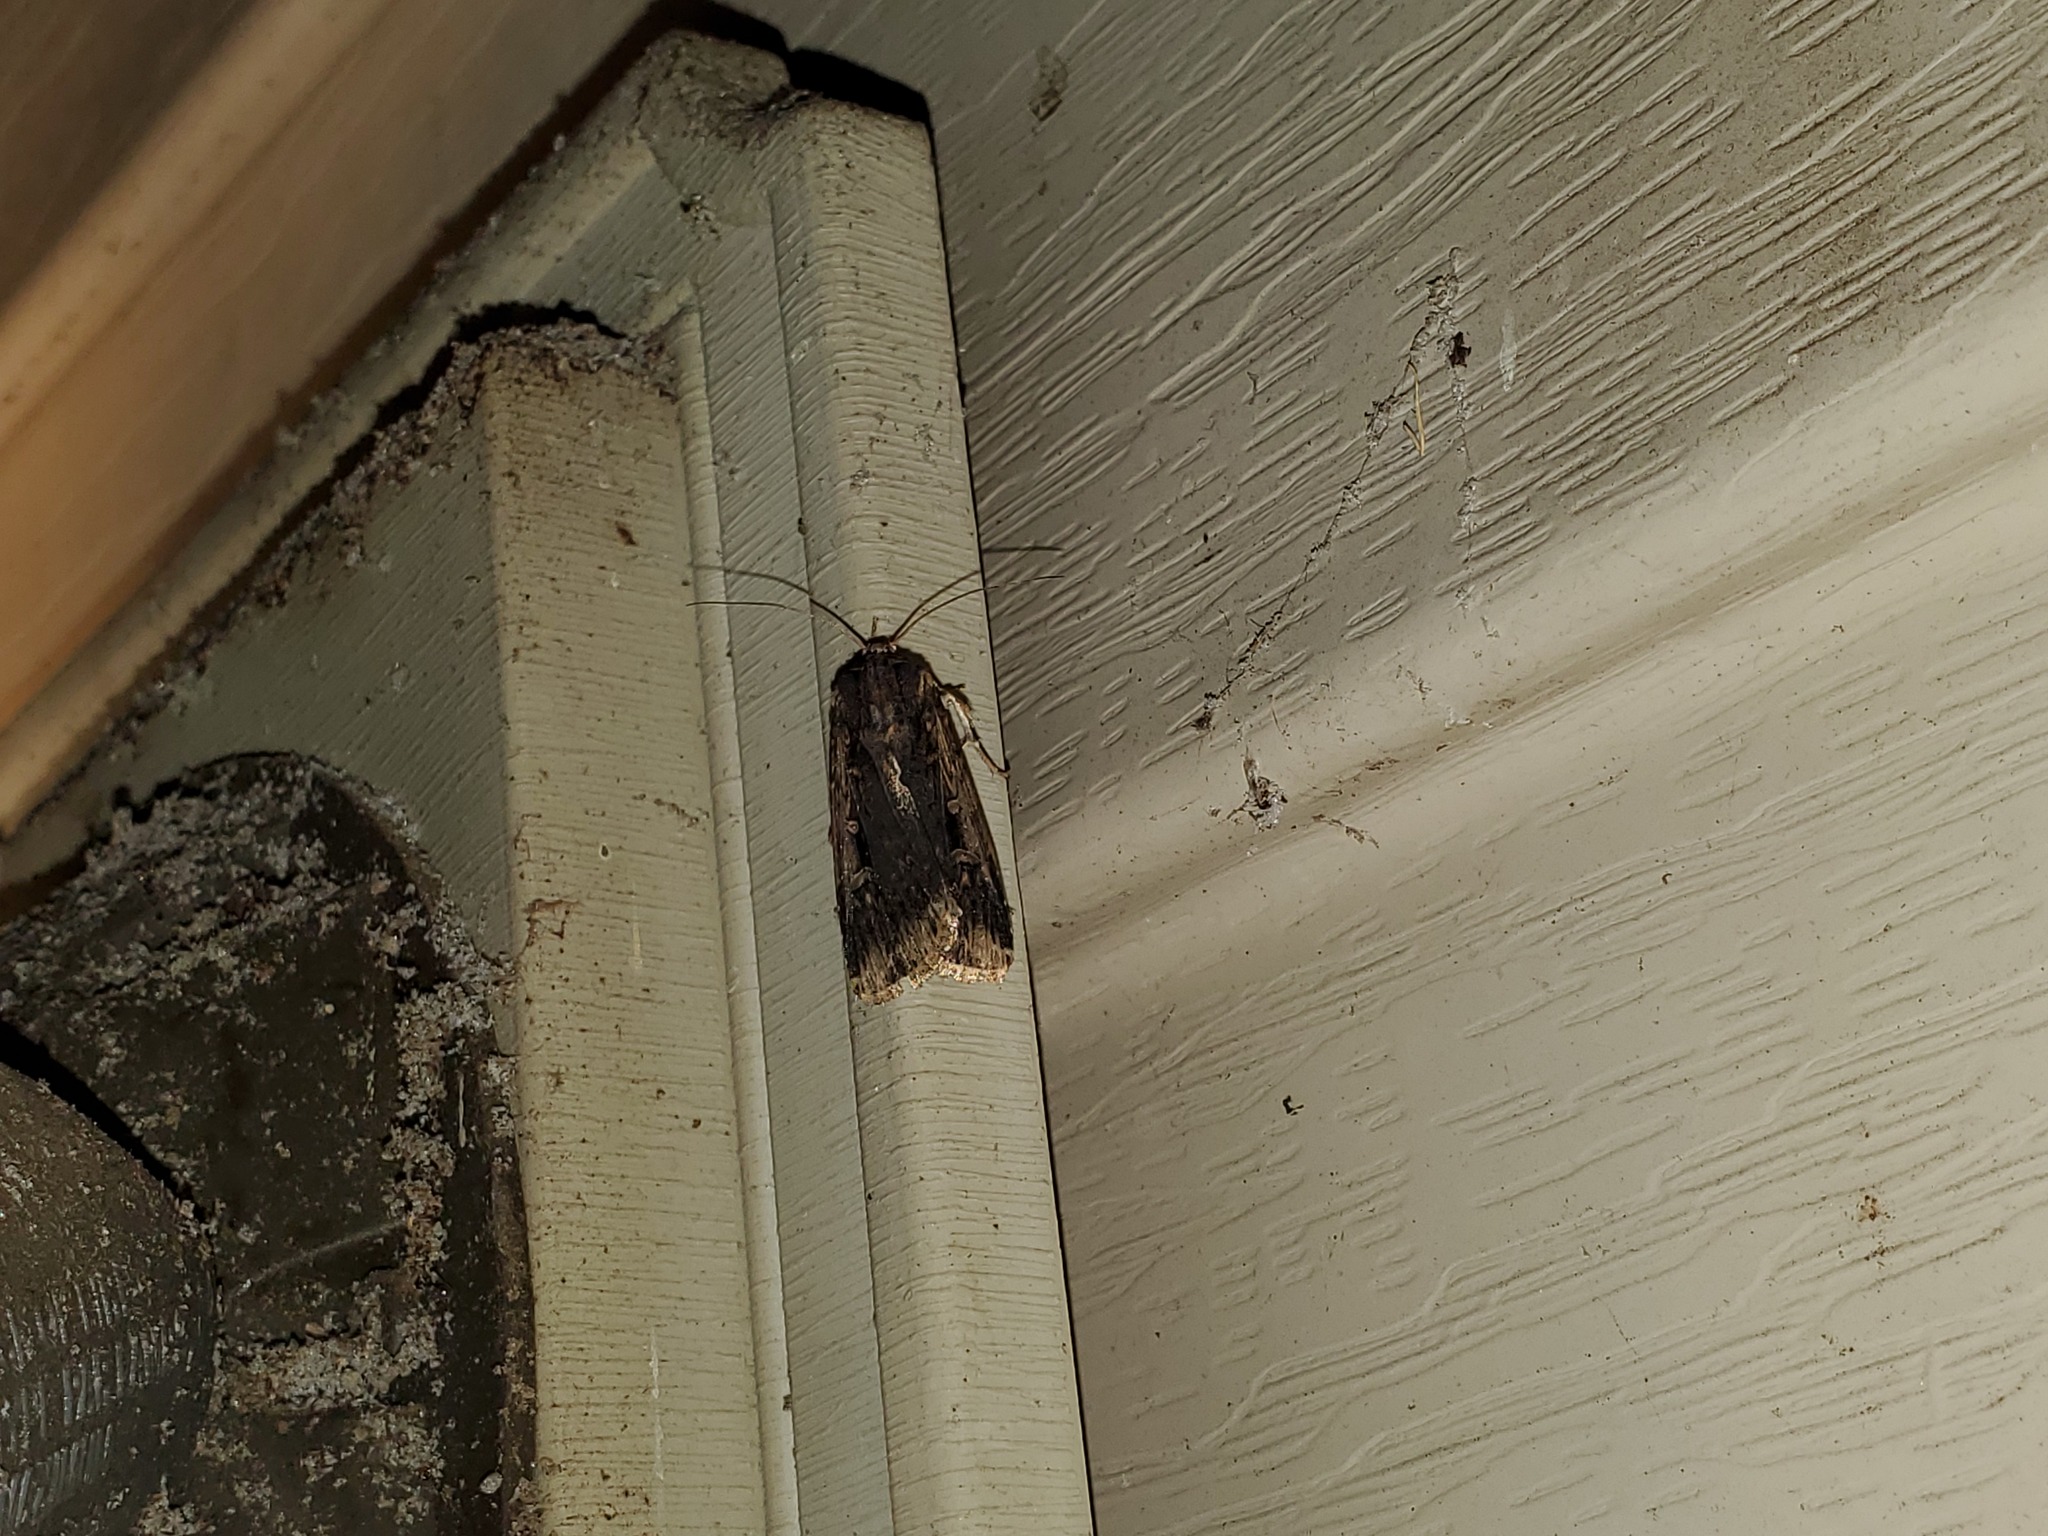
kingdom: Animalia
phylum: Arthropoda
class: Insecta
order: Lepidoptera
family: Noctuidae
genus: Feltia
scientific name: Feltia subterranea
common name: Granulate cutworm
